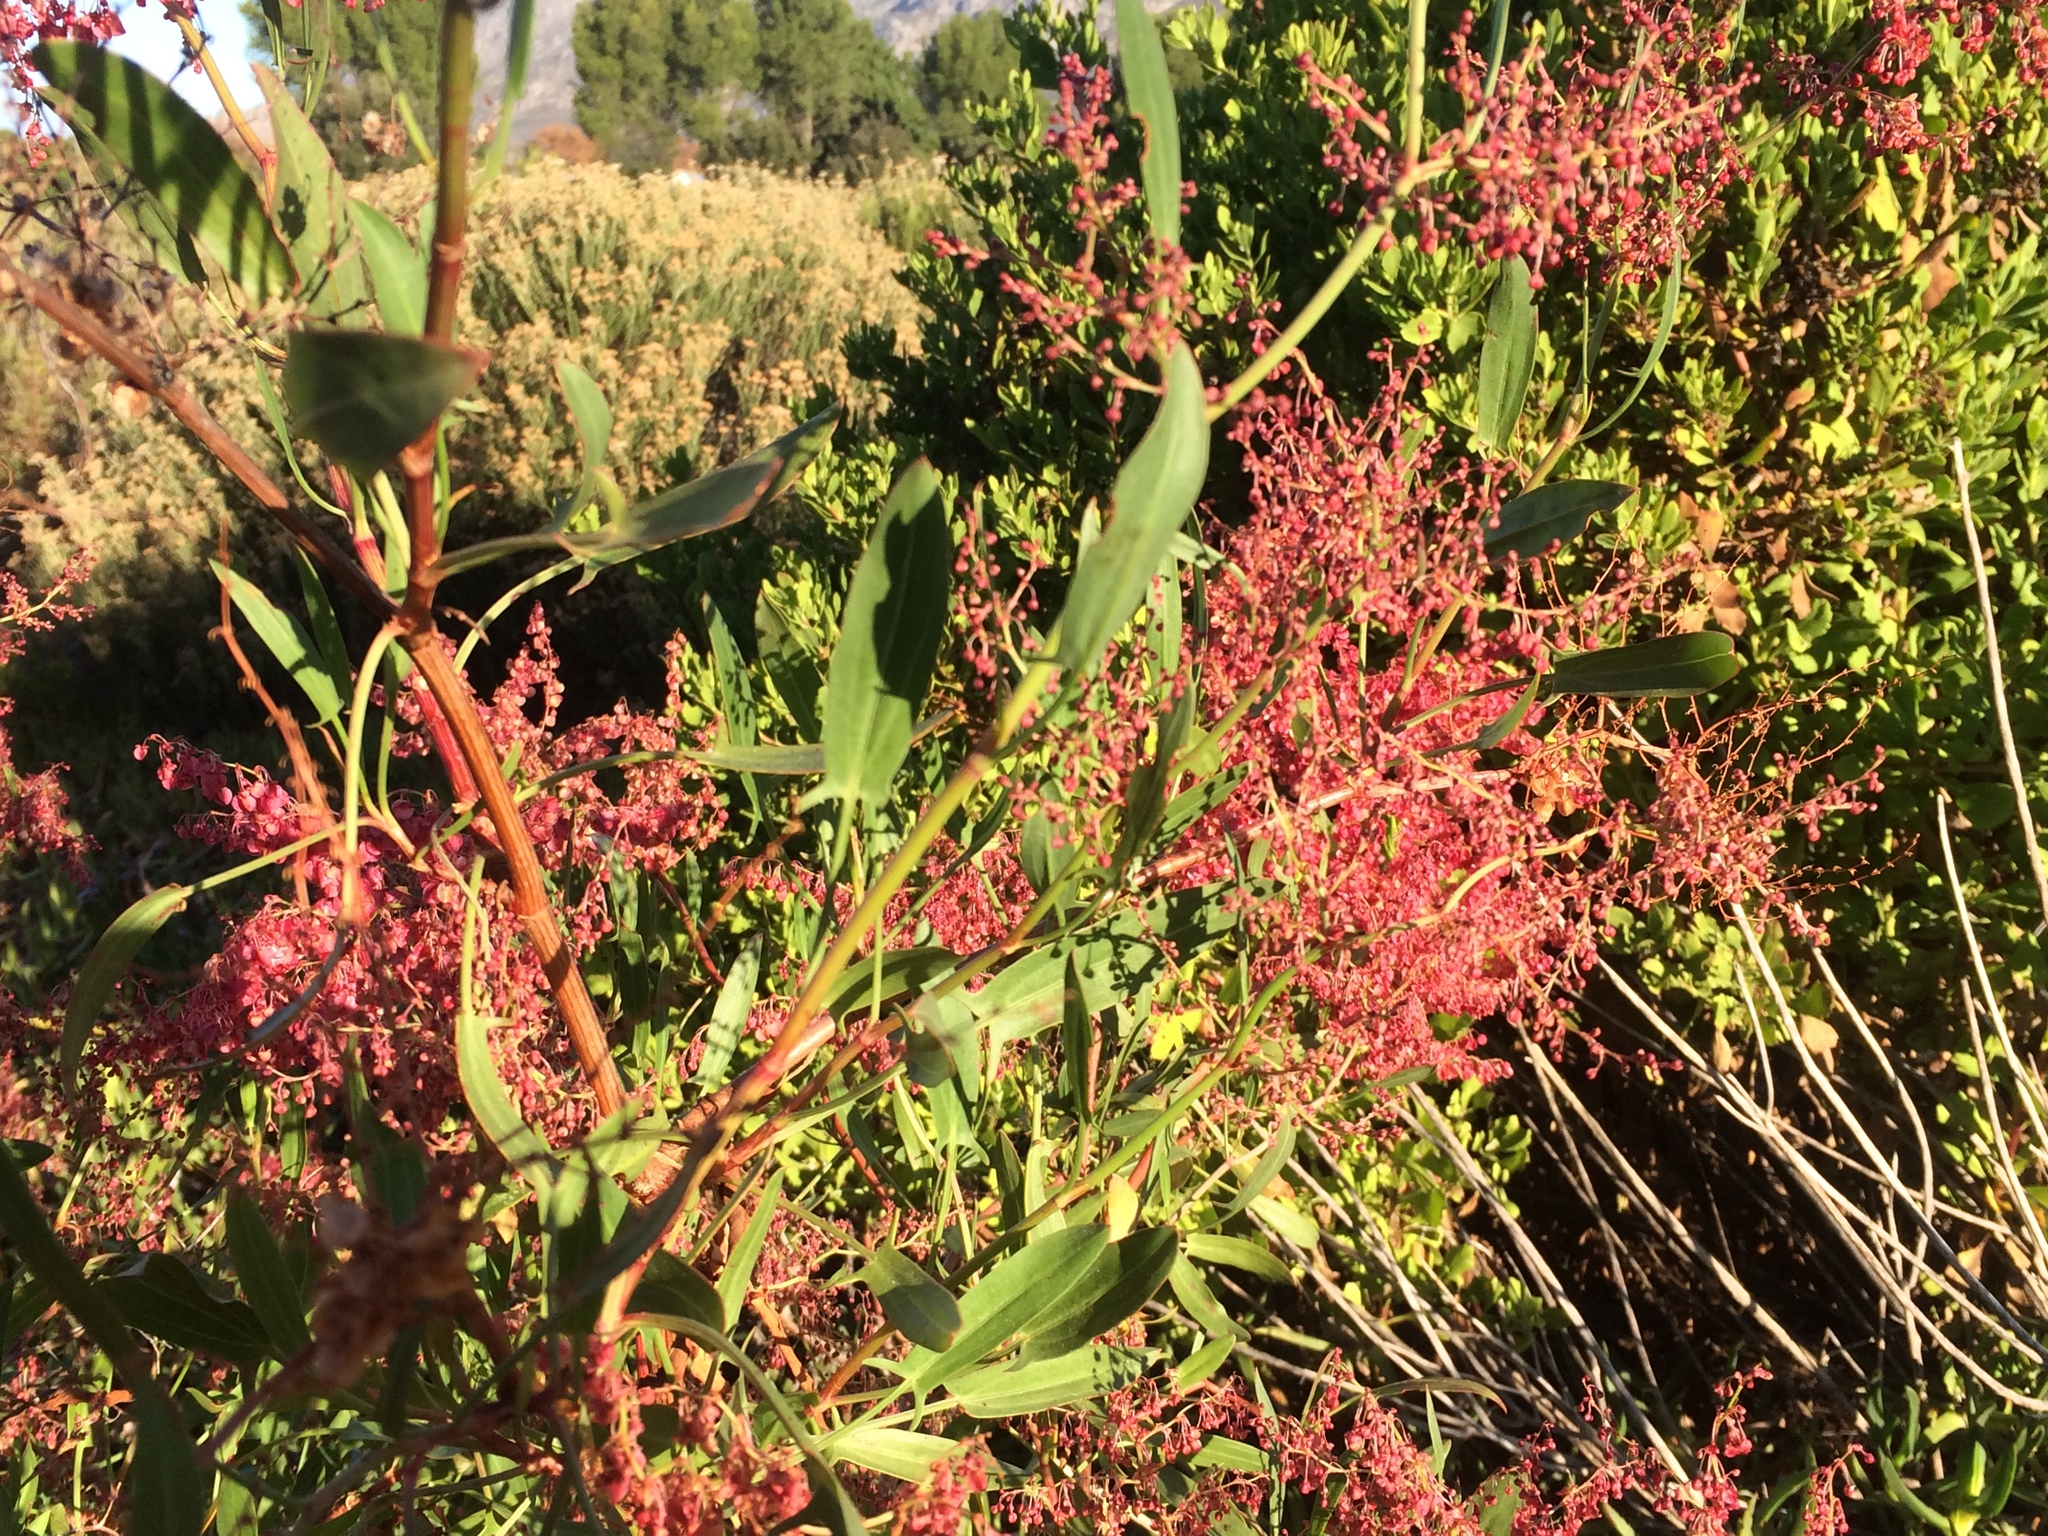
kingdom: Plantae
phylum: Tracheophyta
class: Magnoliopsida
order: Caryophyllales
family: Polygonaceae
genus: Rumex
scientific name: Rumex usambarensis
